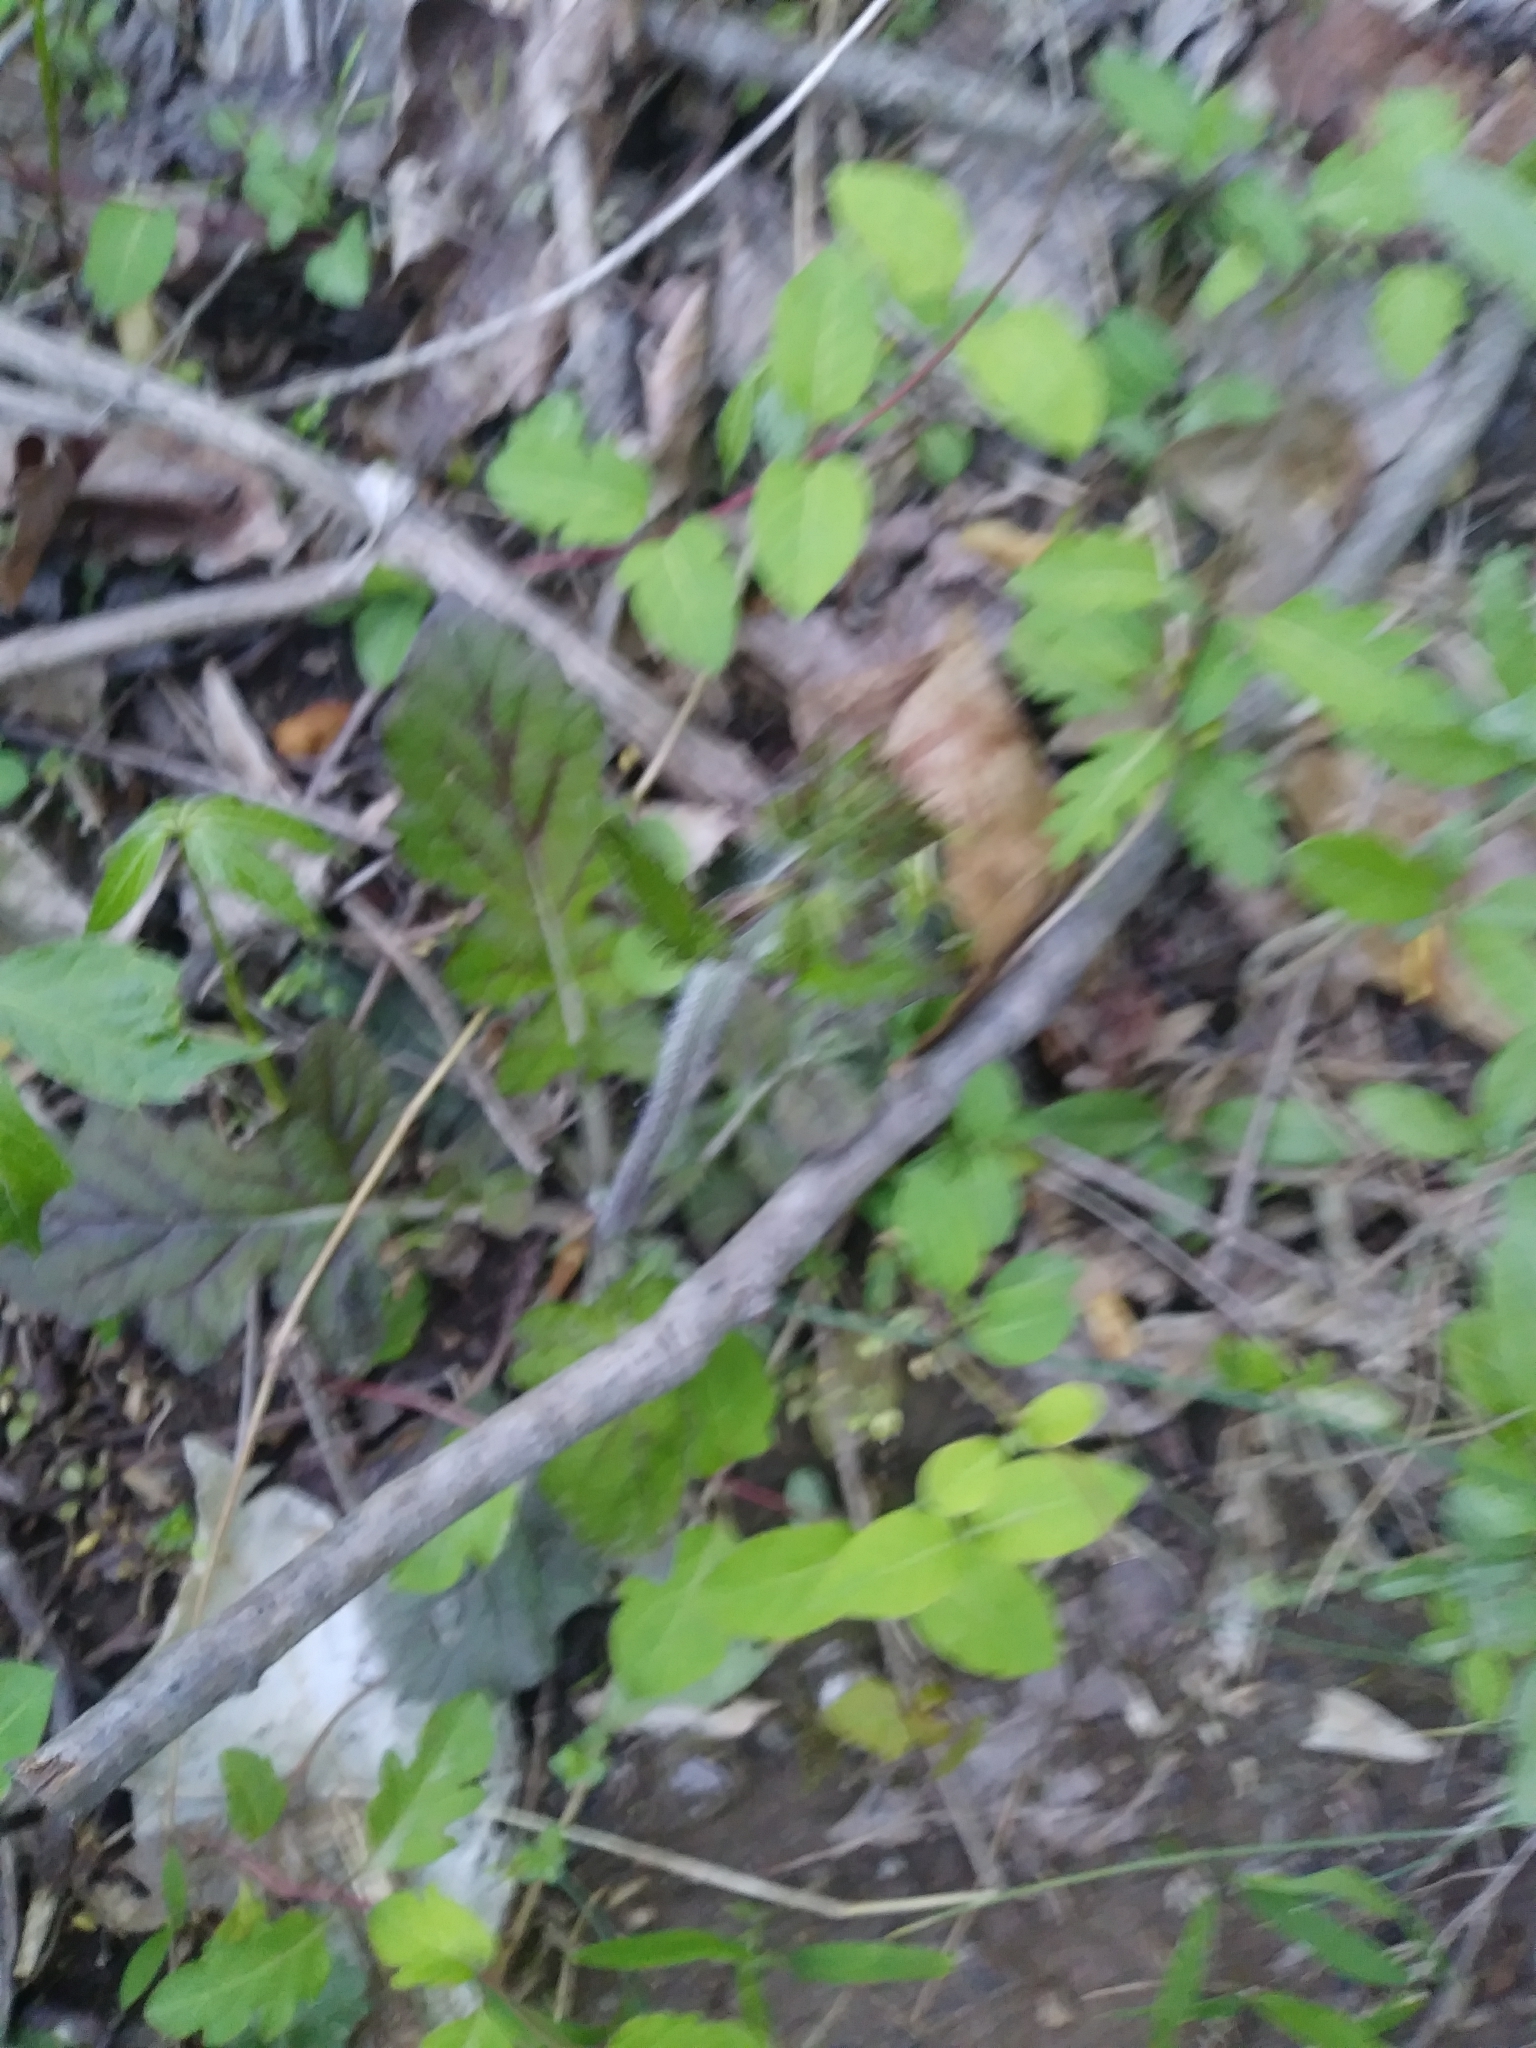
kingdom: Plantae
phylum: Tracheophyta
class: Magnoliopsida
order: Lamiales
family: Lamiaceae
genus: Salvia
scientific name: Salvia lyrata
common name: Cancerweed
